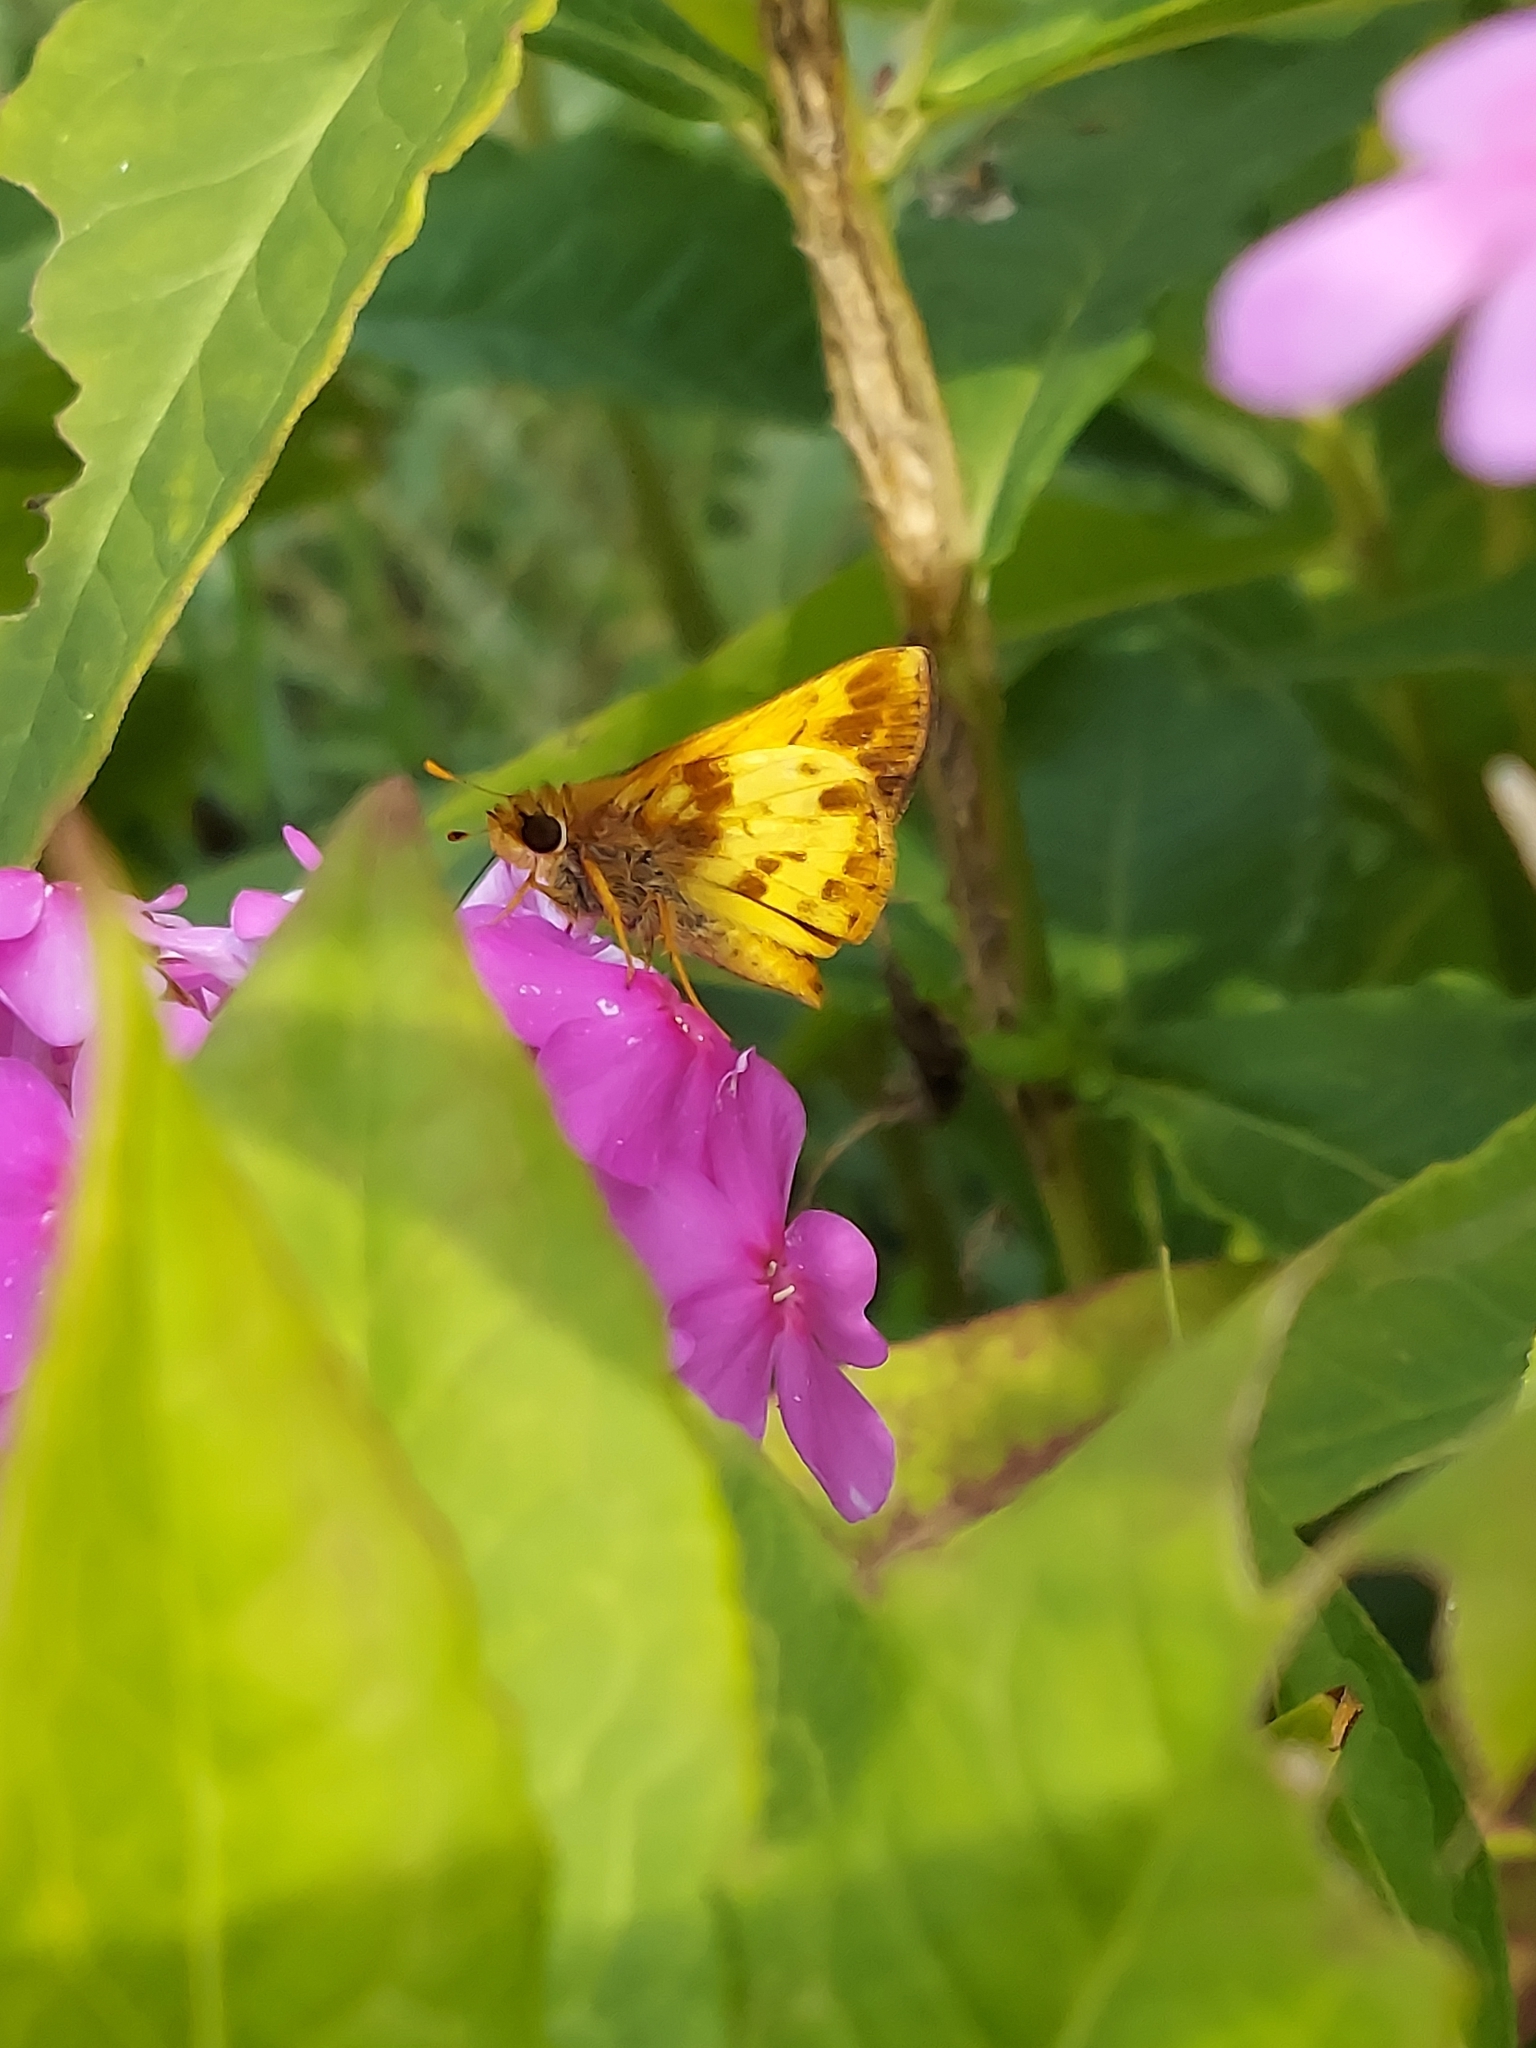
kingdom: Animalia
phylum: Arthropoda
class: Insecta
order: Lepidoptera
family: Hesperiidae
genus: Lon
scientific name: Lon zabulon
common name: Zabulon skipper
